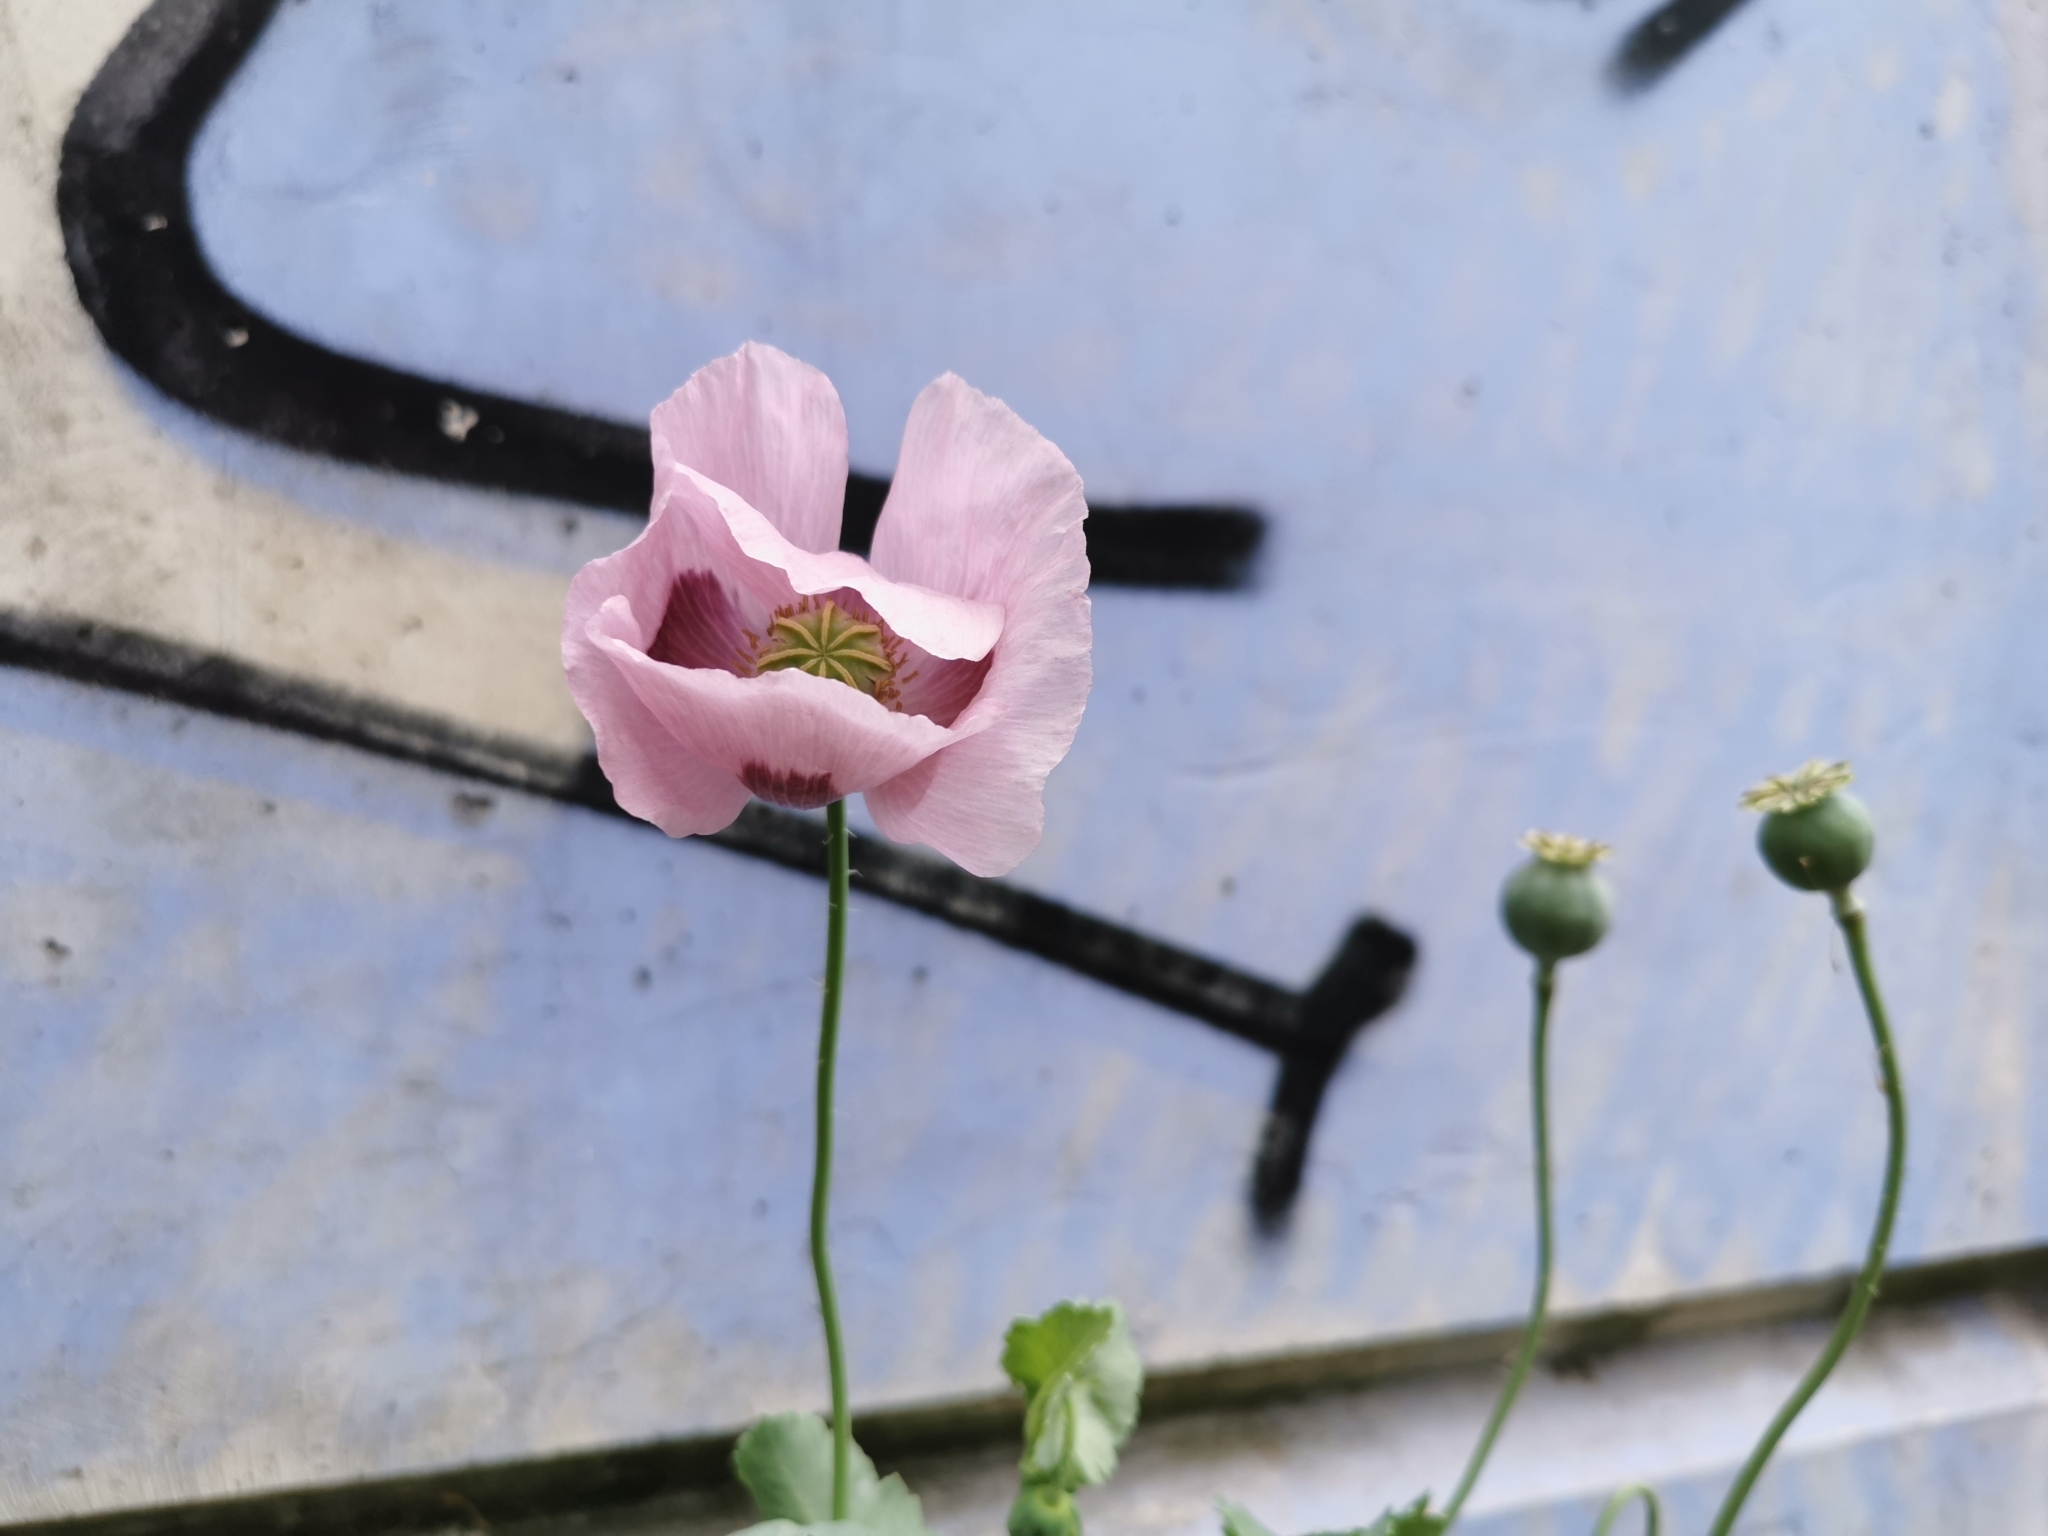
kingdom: Plantae
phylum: Tracheophyta
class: Magnoliopsida
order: Ranunculales
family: Papaveraceae
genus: Papaver
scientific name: Papaver somniferum
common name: Opium poppy
